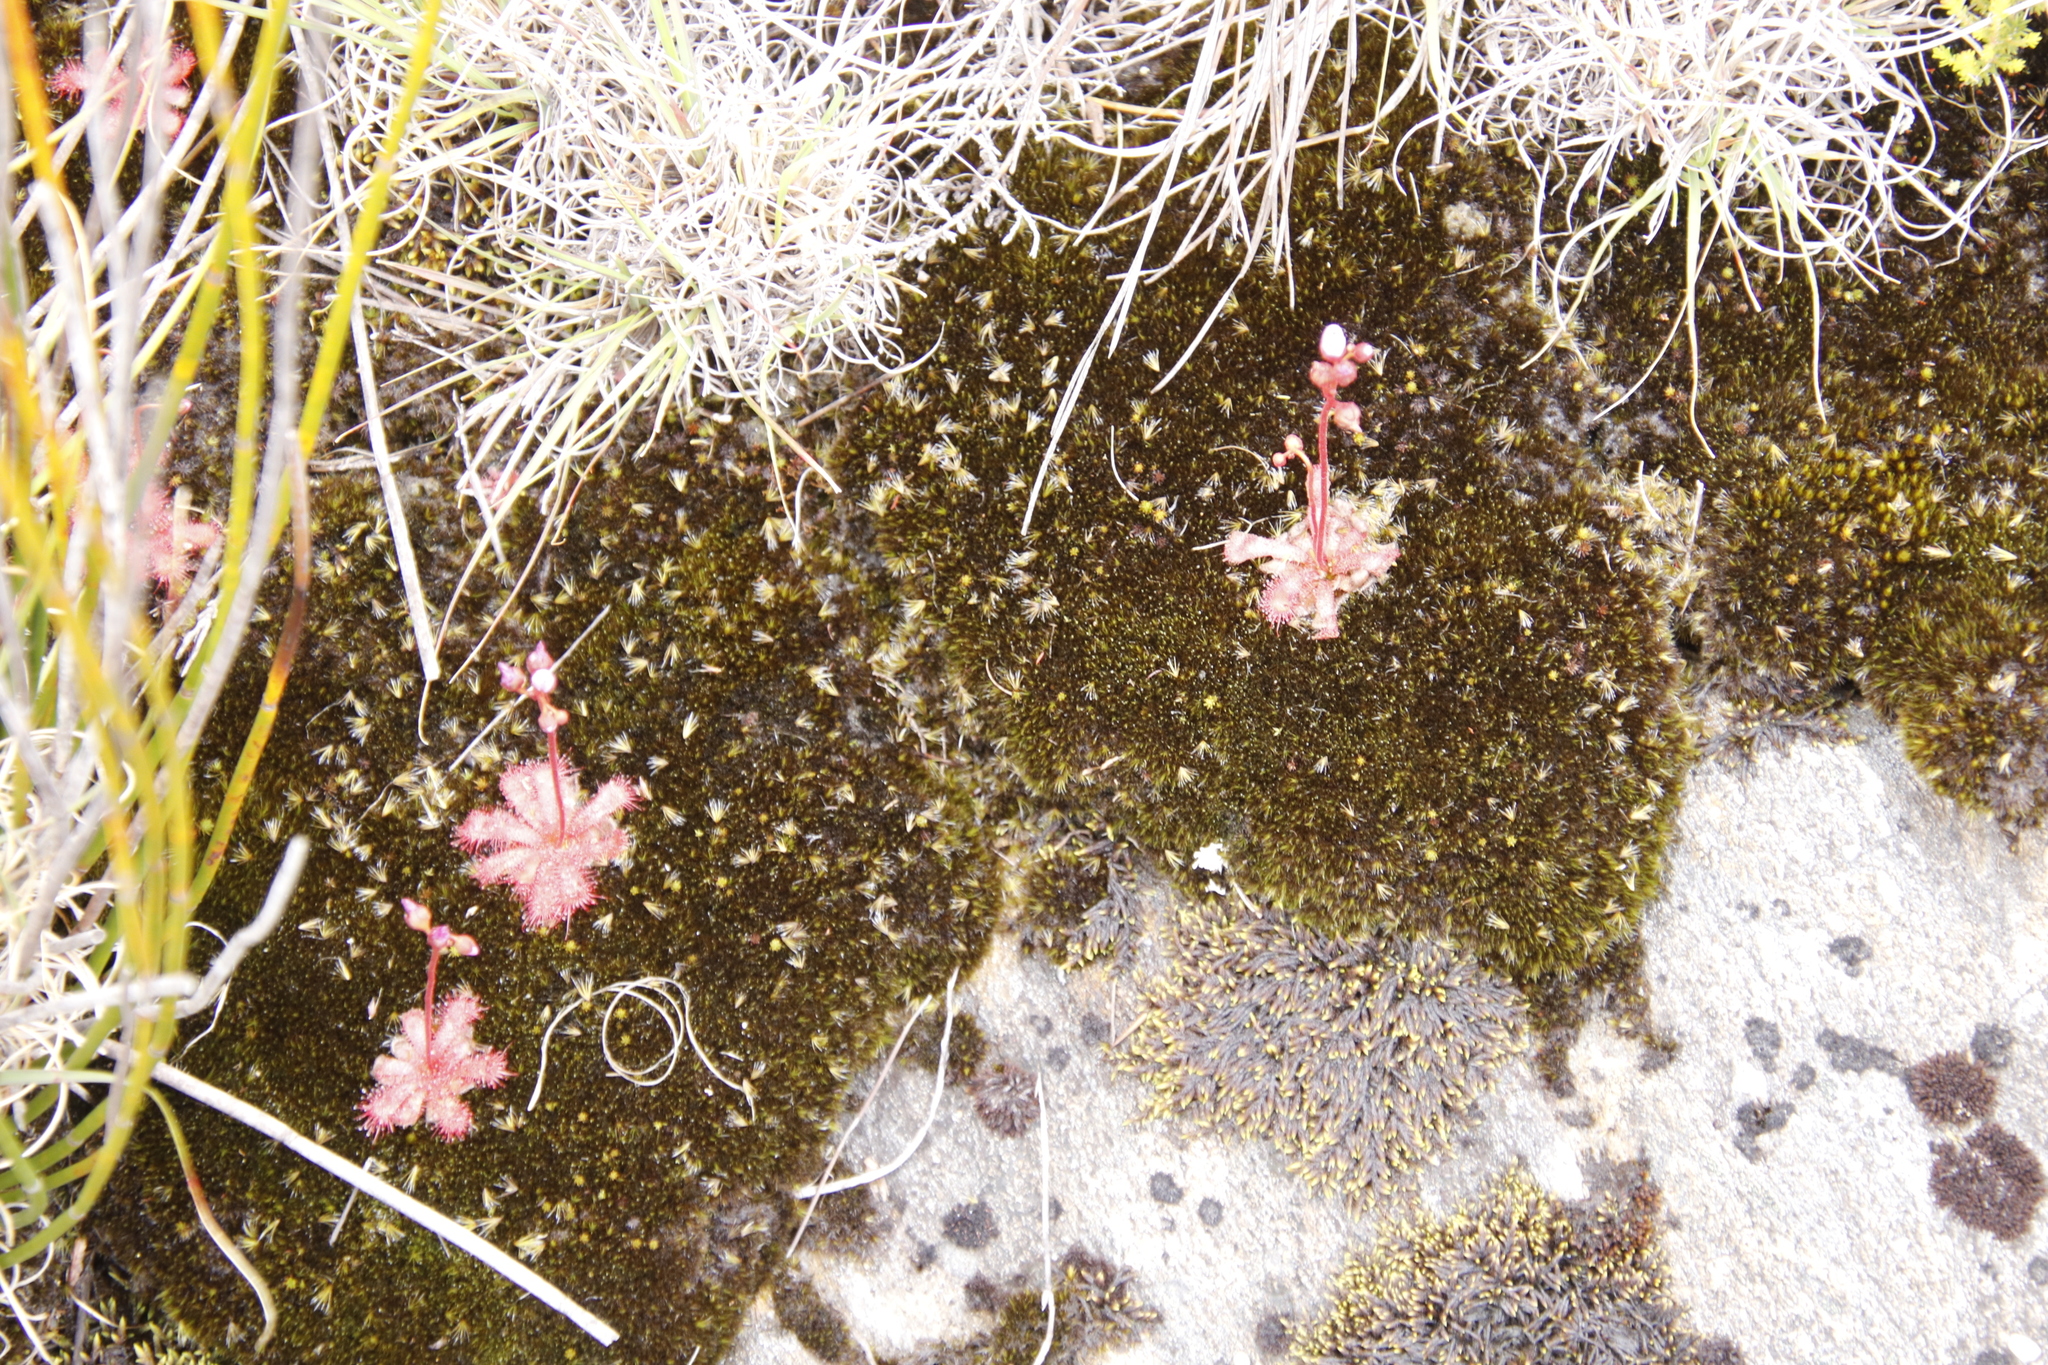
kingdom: Plantae
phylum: Tracheophyta
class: Magnoliopsida
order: Caryophyllales
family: Droseraceae
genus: Drosera
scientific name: Drosera trinervia
